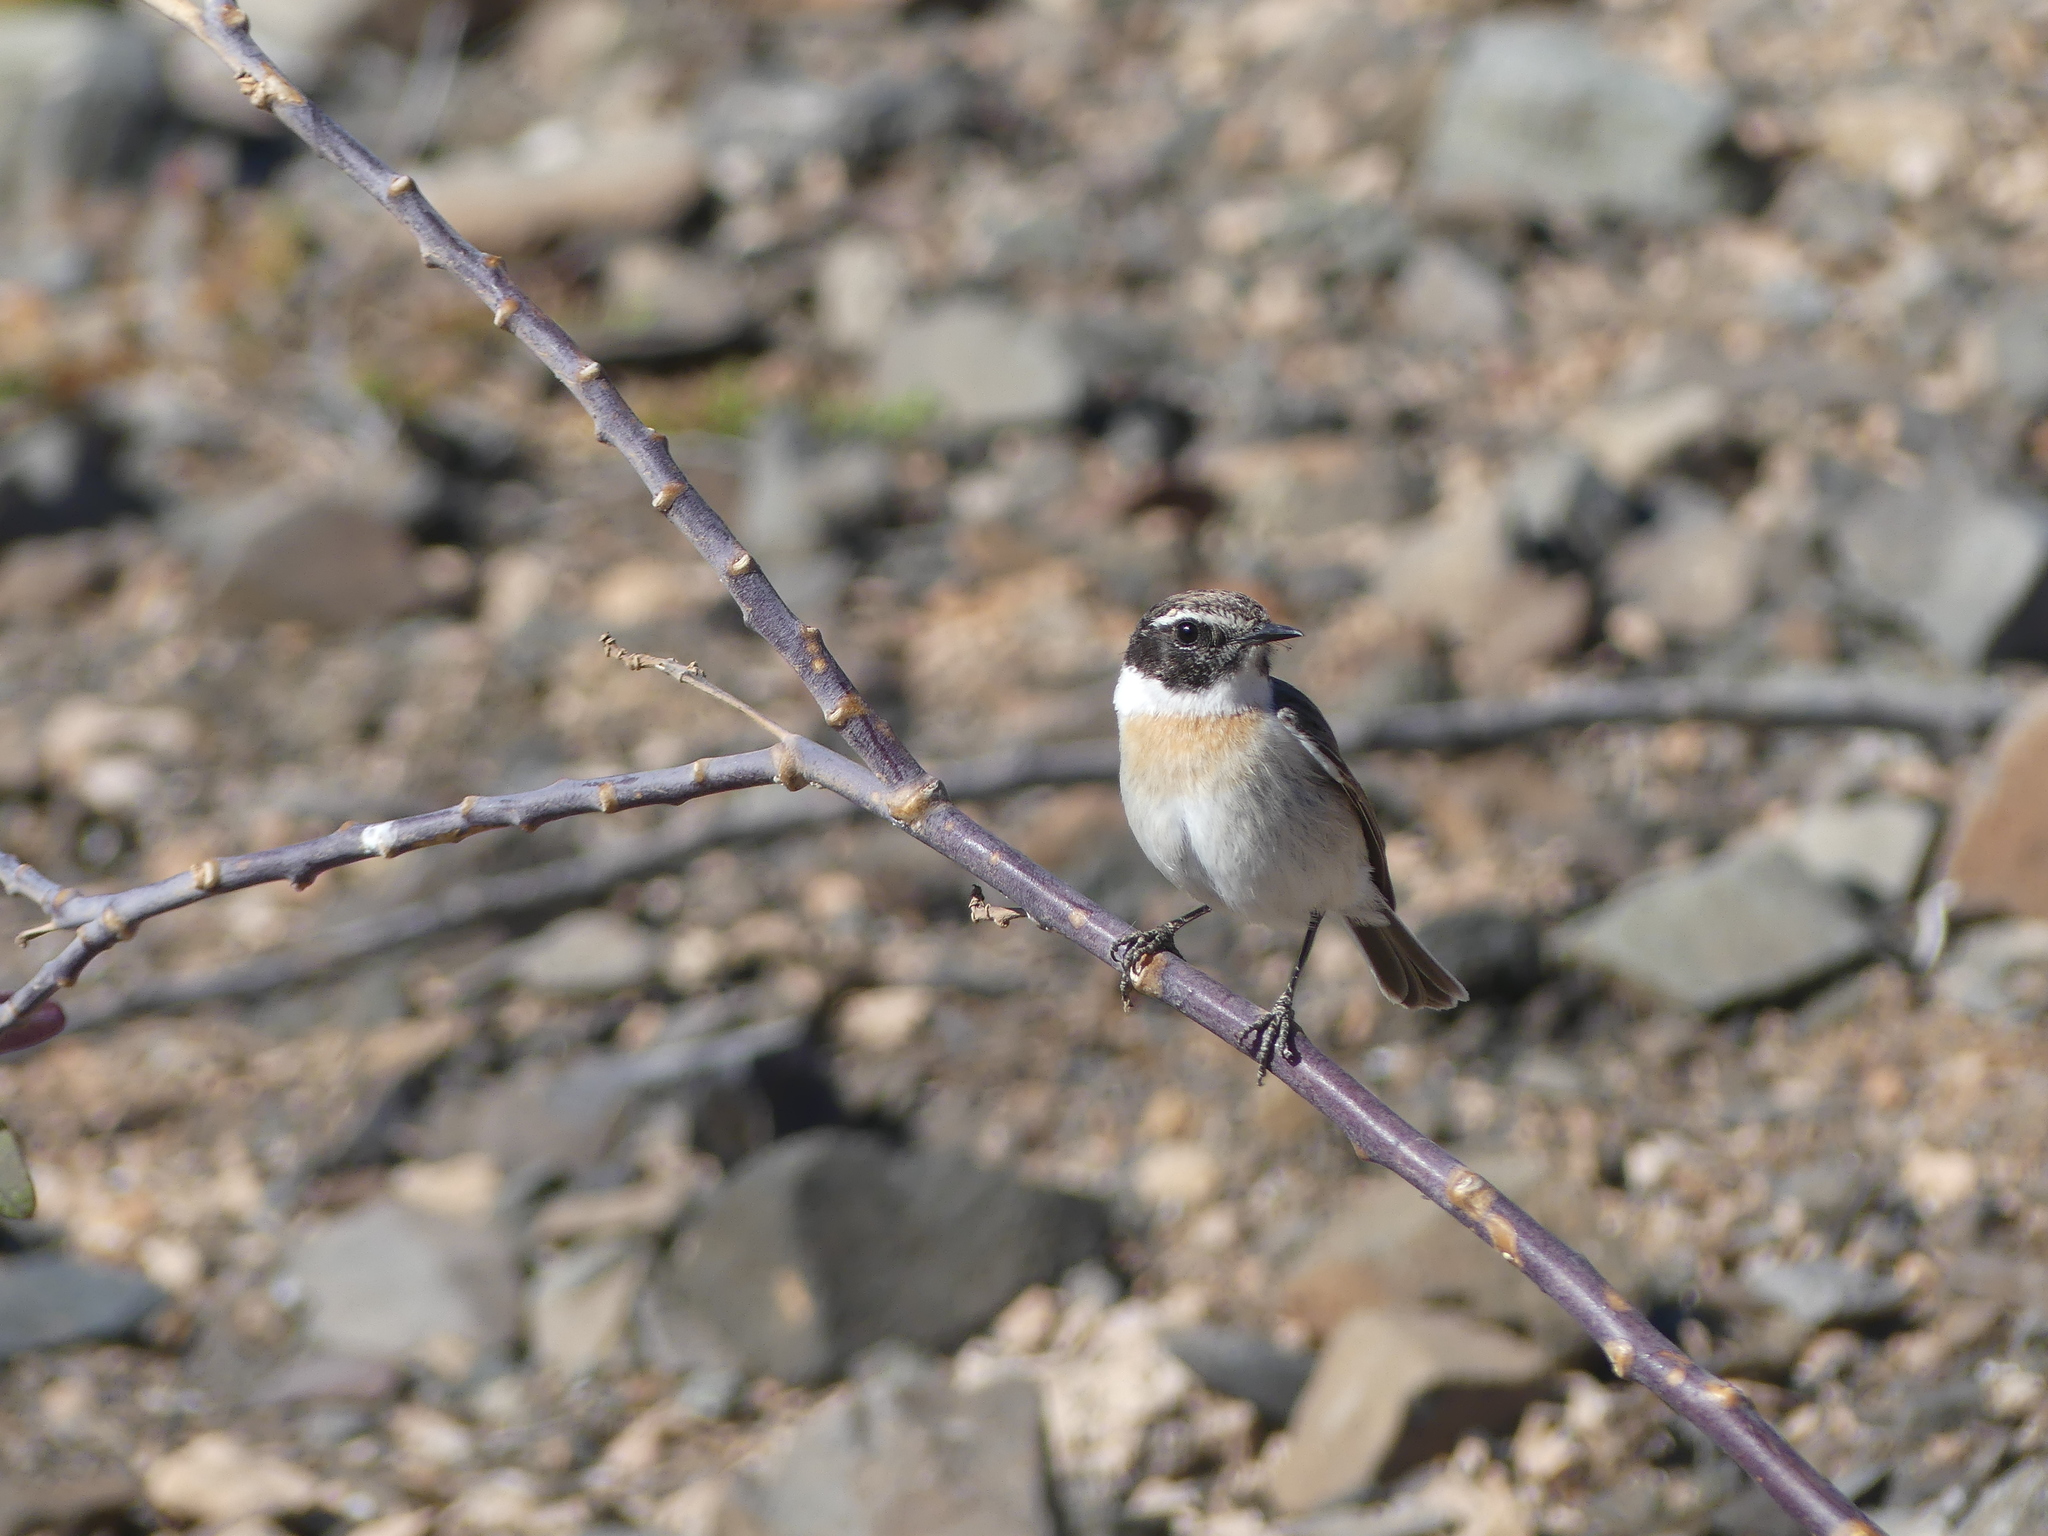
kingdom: Animalia
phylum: Chordata
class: Aves
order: Passeriformes
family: Muscicapidae
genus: Saxicola
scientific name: Saxicola dacotiae
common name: Canary islands stonechat
